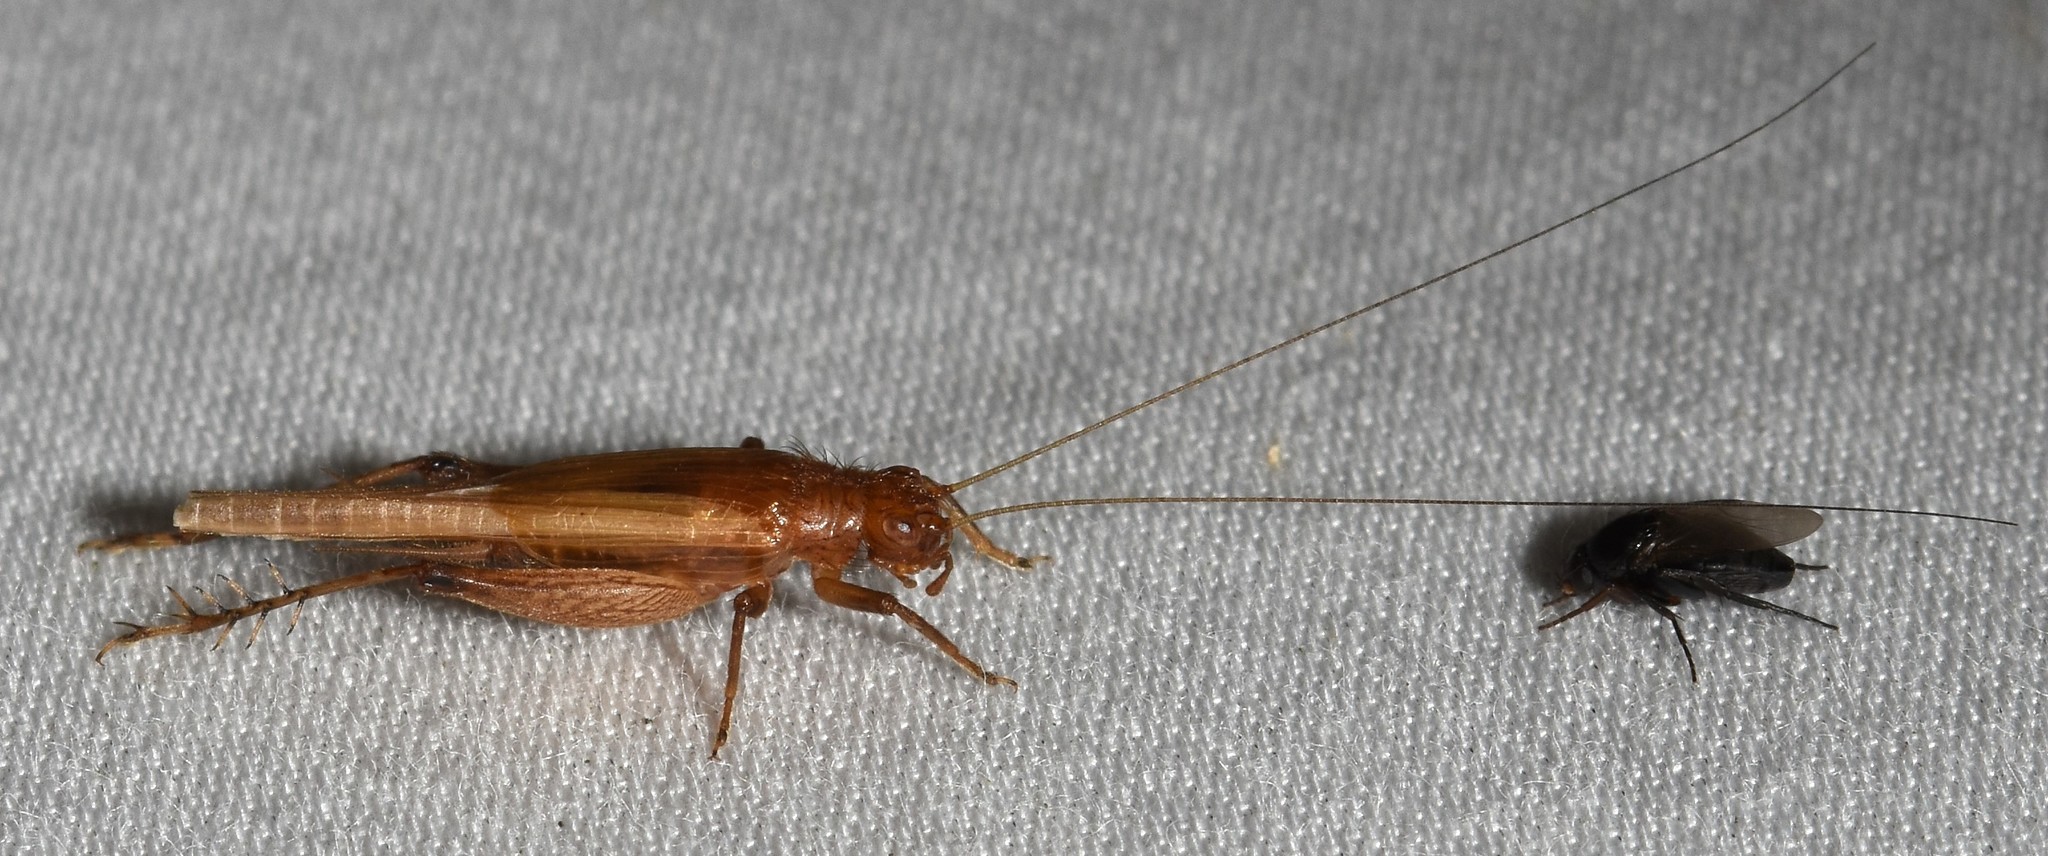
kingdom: Animalia
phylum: Arthropoda
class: Insecta
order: Orthoptera
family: Trigonidiidae
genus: Anaxipha
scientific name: Anaxipha vernalis
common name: Spring trig
